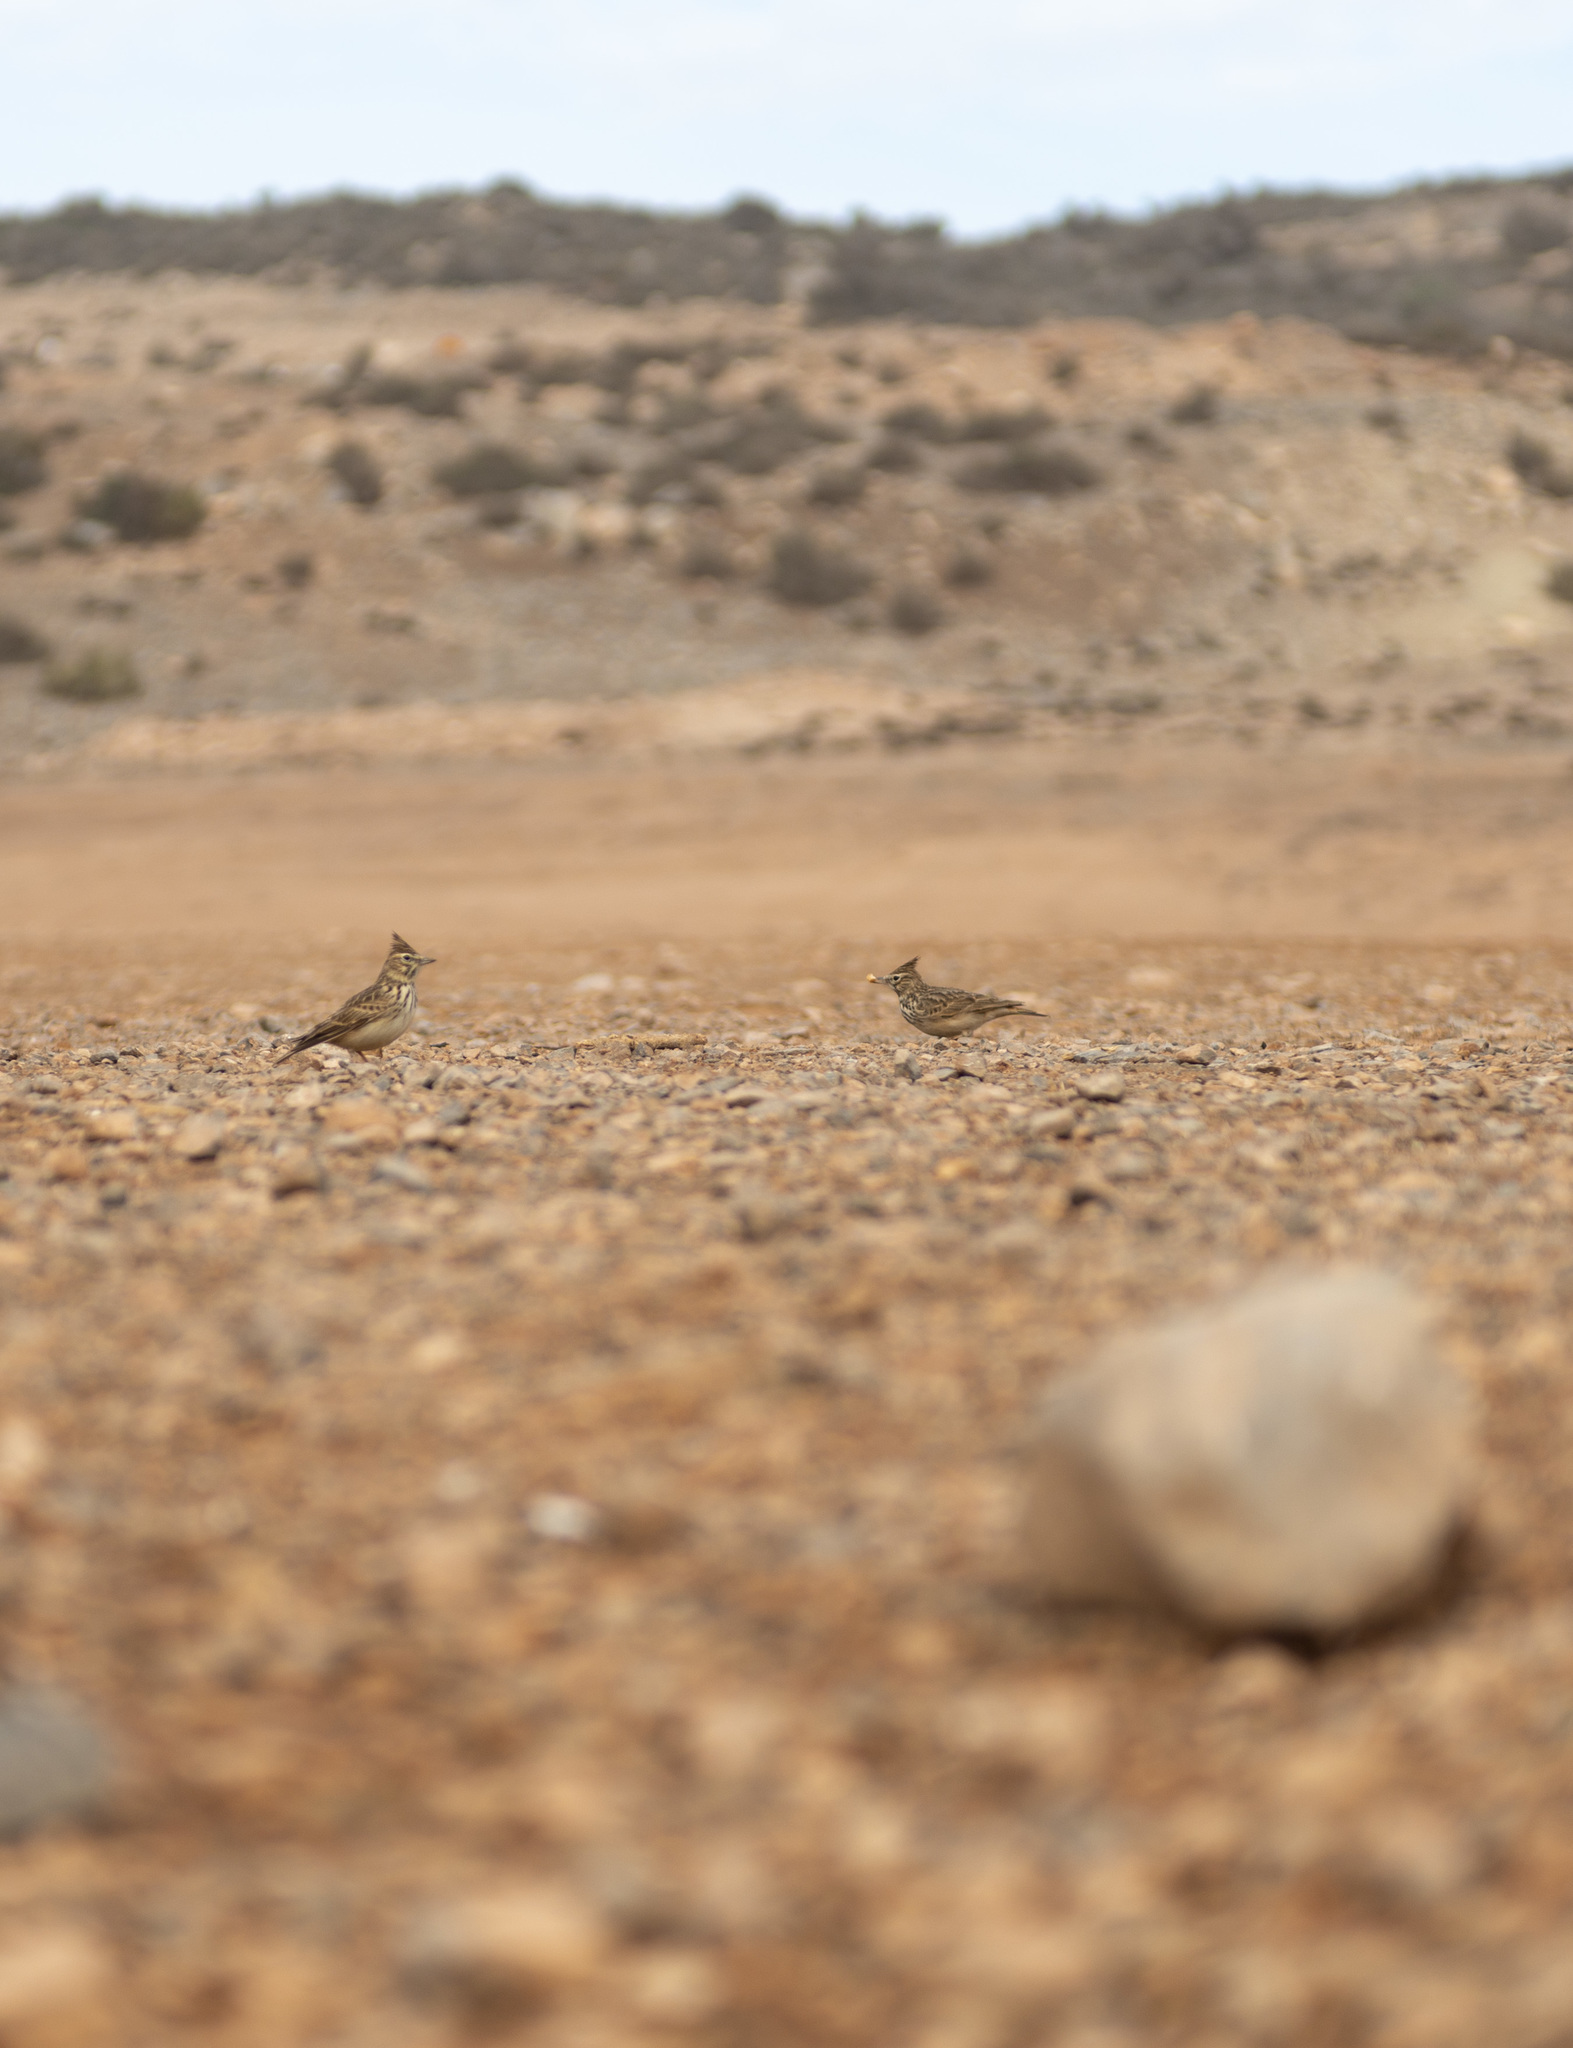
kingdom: Animalia
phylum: Chordata
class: Aves
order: Passeriformes
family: Alaudidae
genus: Galerida
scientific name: Galerida theklae
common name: Thekla lark
